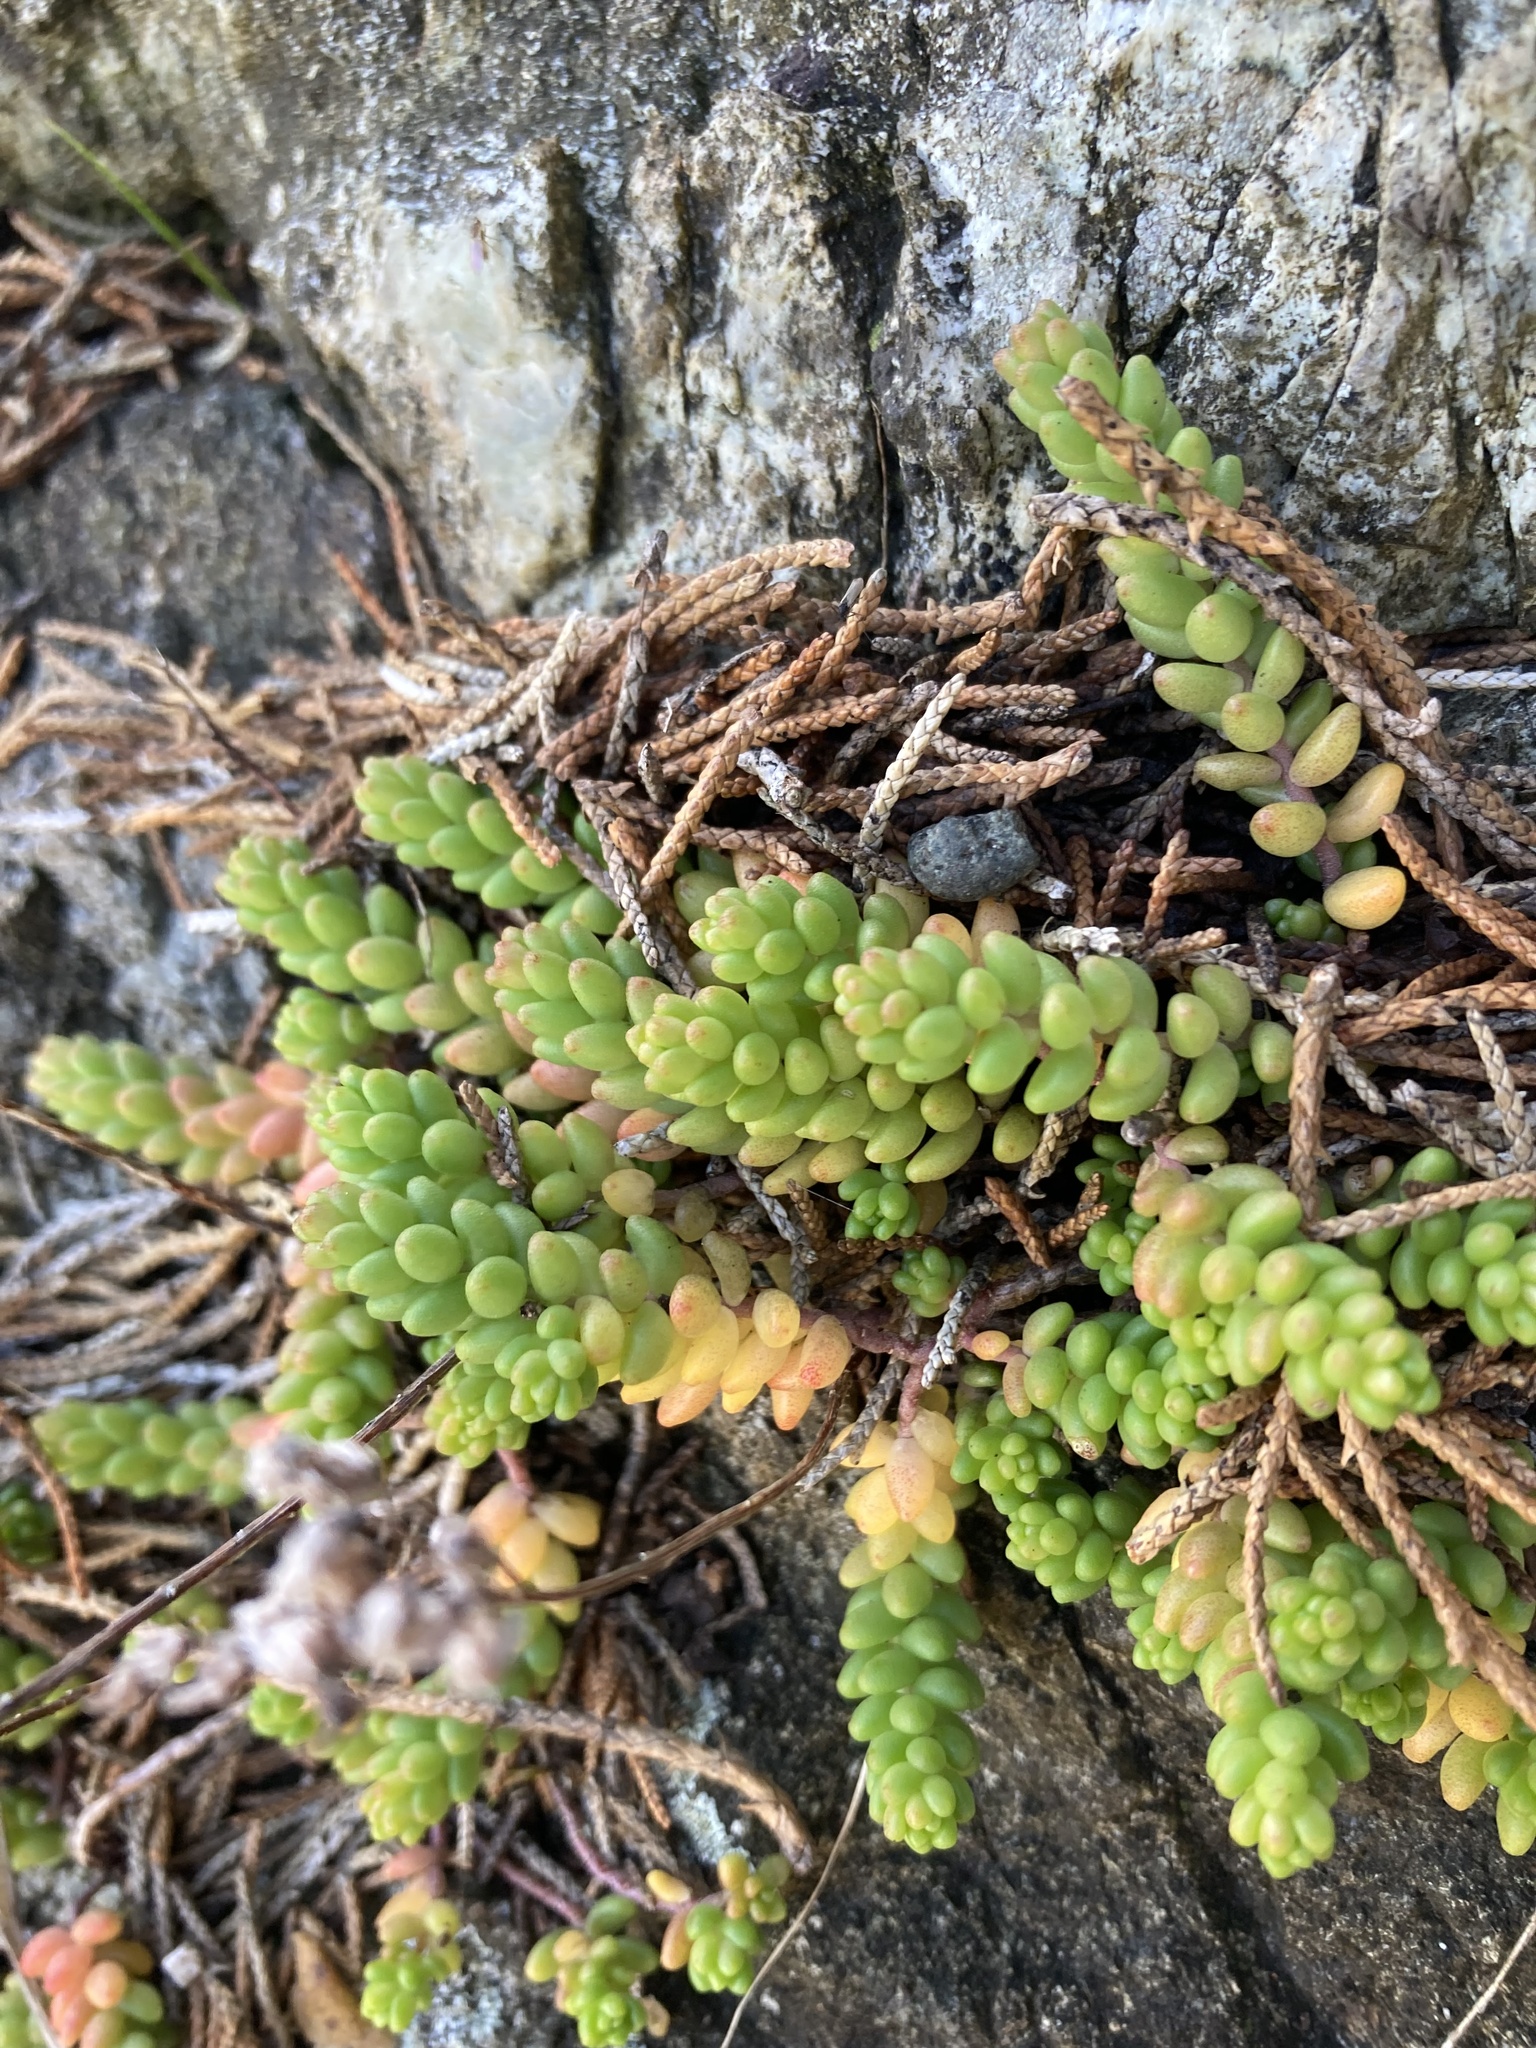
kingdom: Plantae
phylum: Tracheophyta
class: Magnoliopsida
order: Saxifragales
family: Crassulaceae
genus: Sedum
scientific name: Sedum album
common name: White stonecrop
